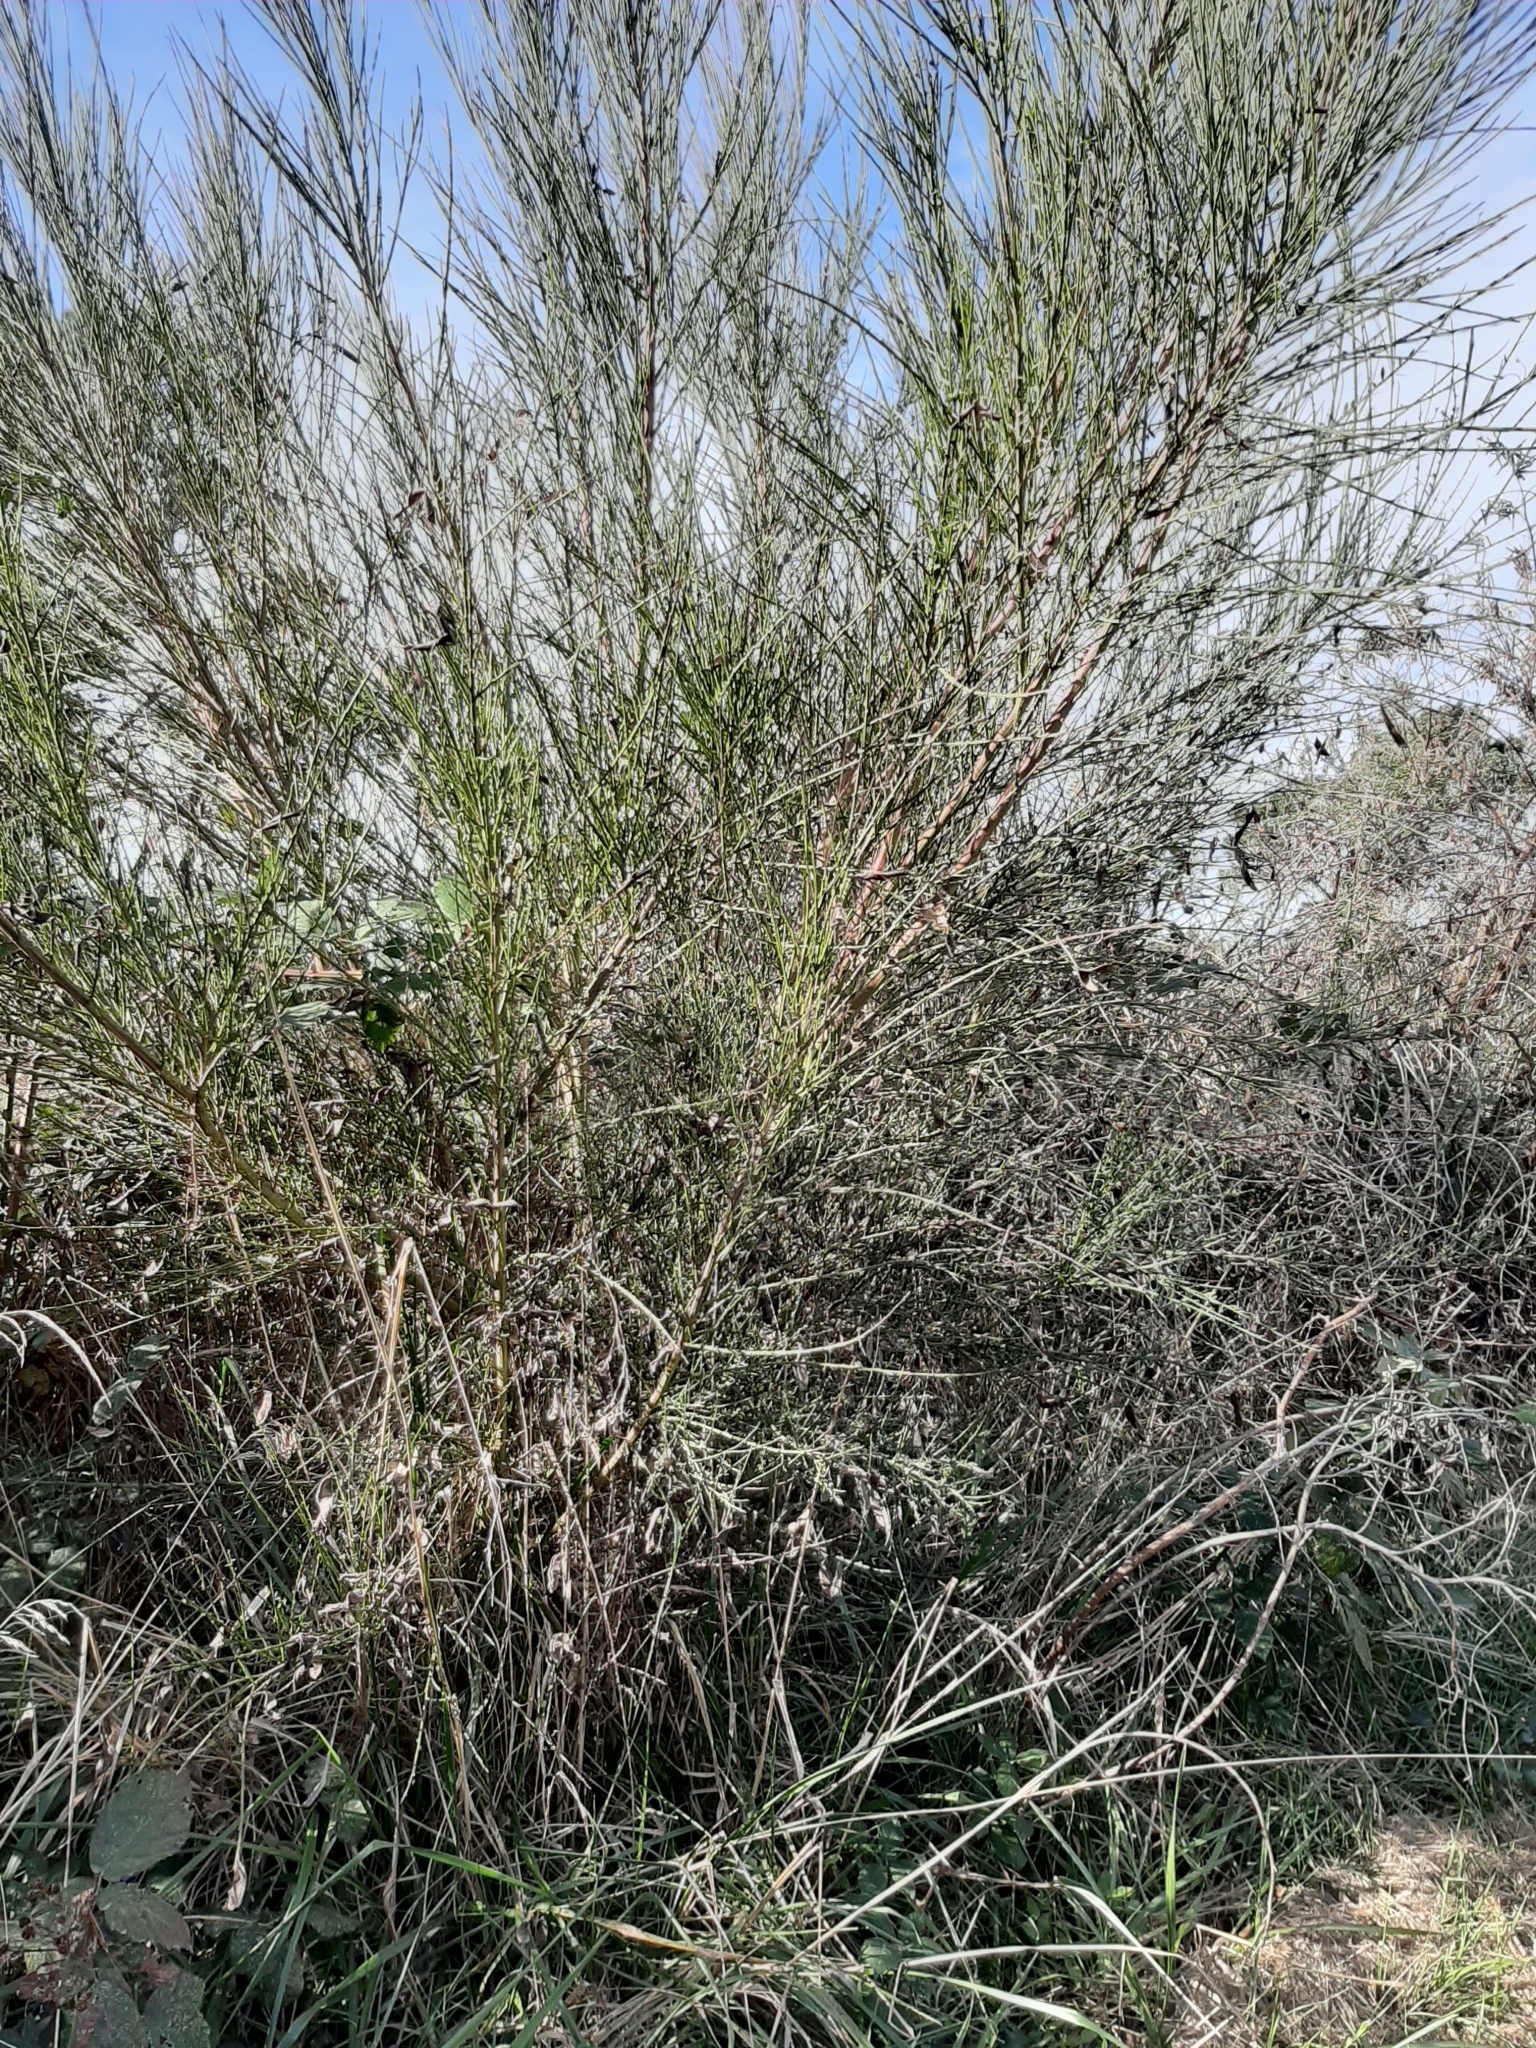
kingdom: Plantae
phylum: Tracheophyta
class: Magnoliopsida
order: Fabales
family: Fabaceae
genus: Cytisus
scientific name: Cytisus scoparius
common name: Scotch broom
